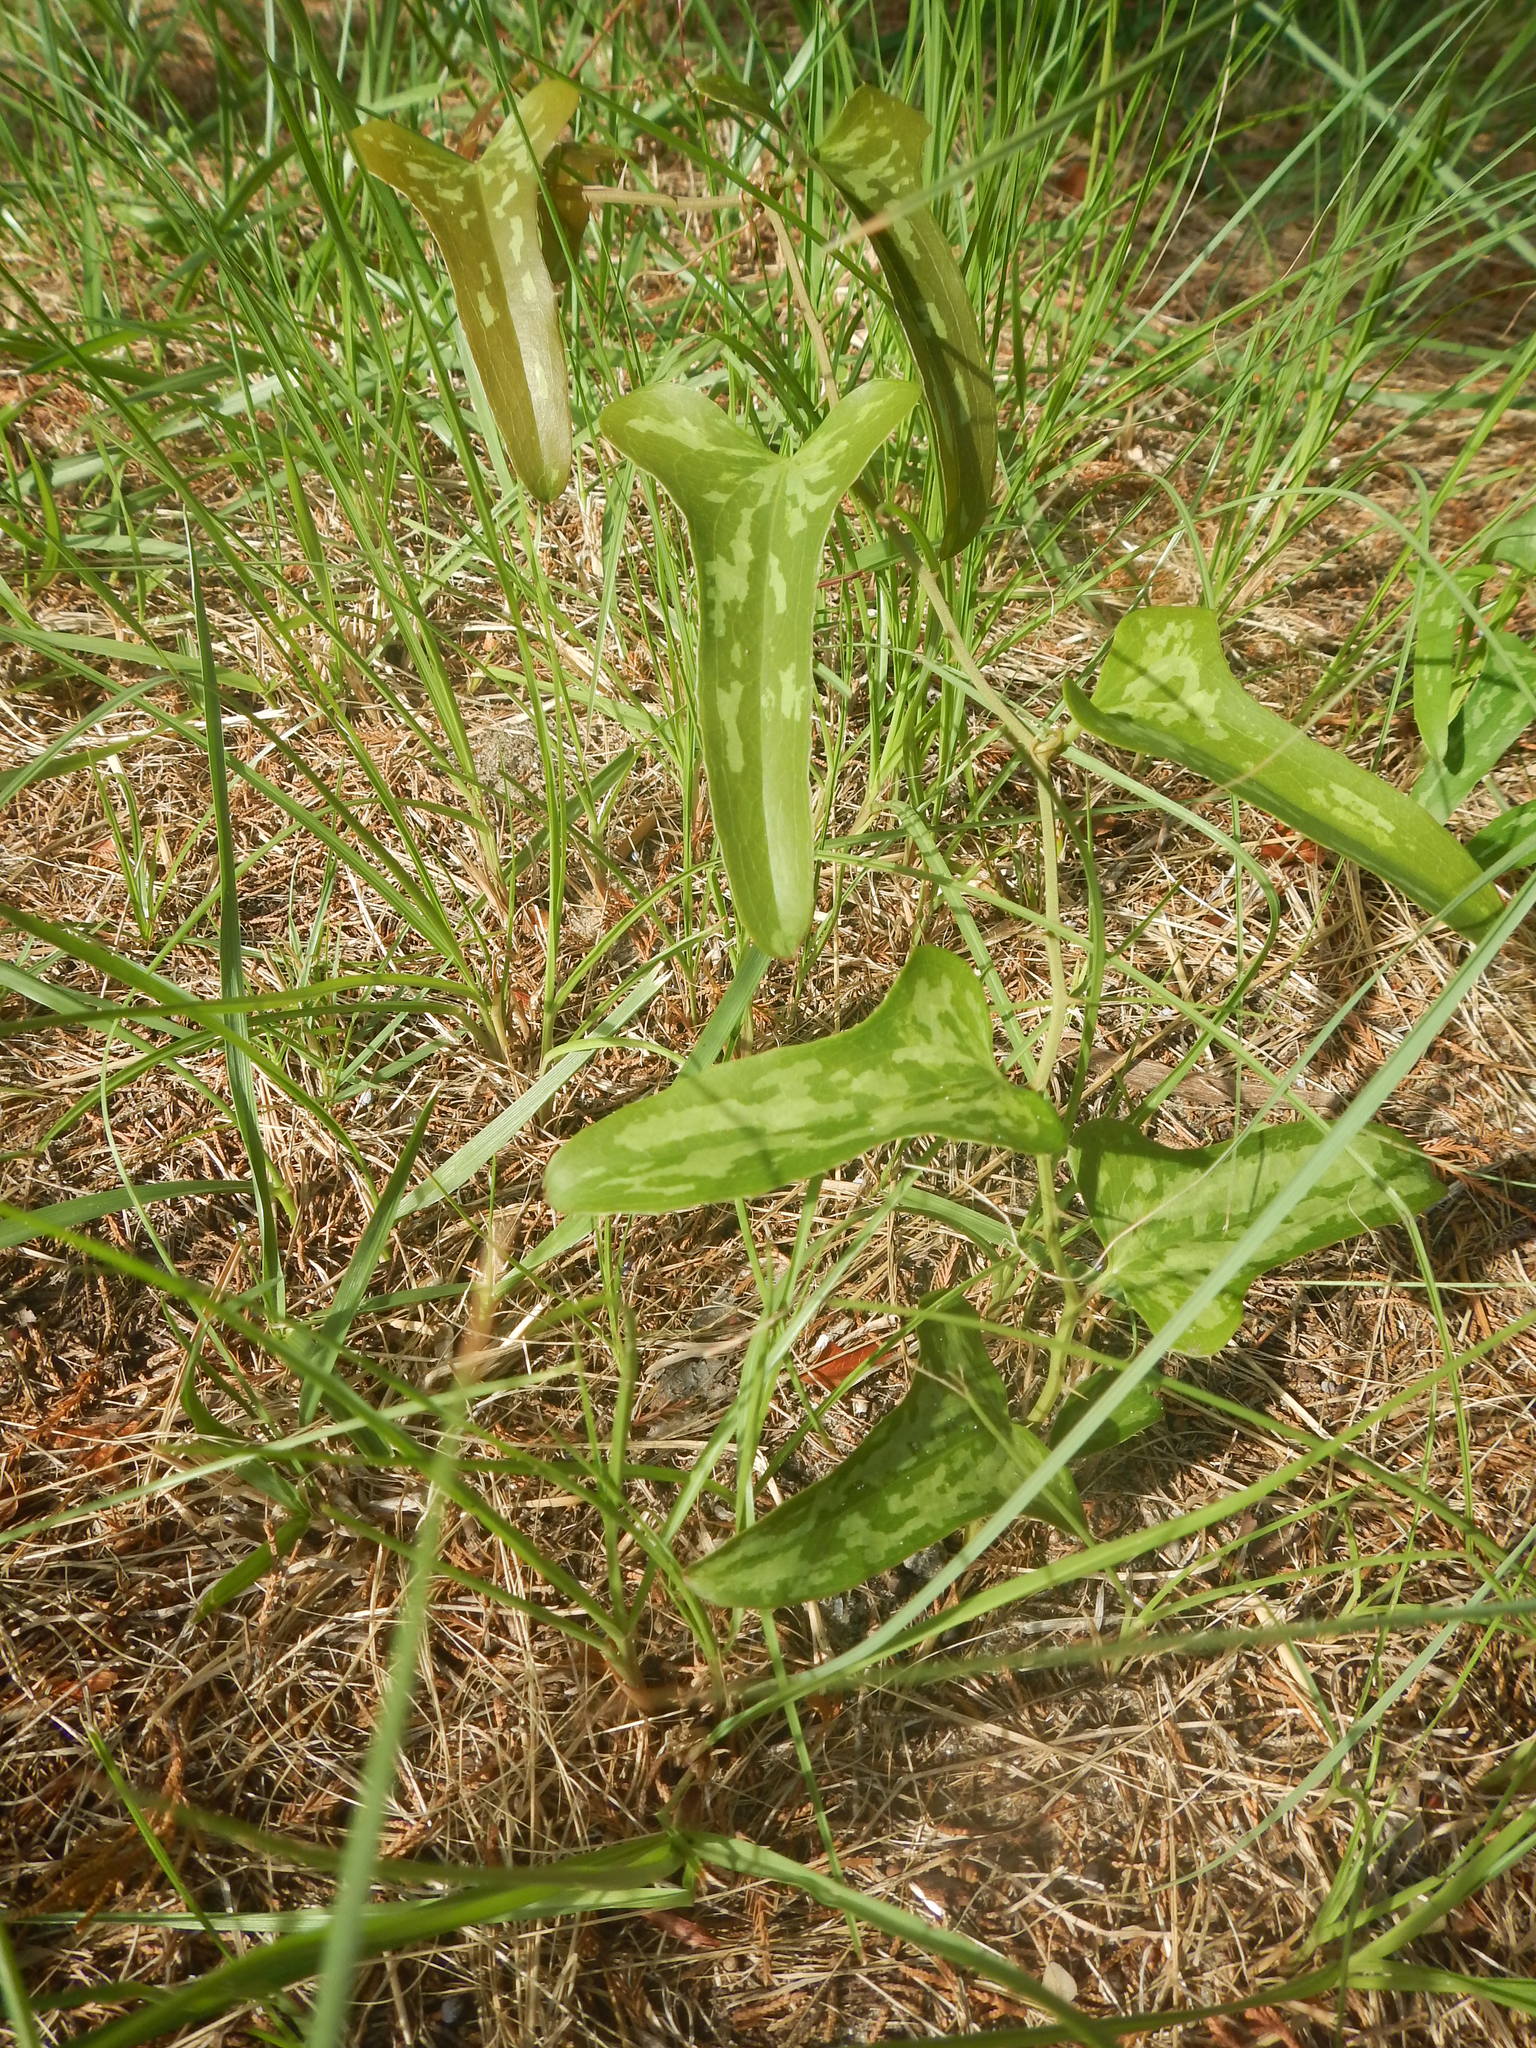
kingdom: Plantae
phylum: Tracheophyta
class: Liliopsida
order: Liliales
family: Smilacaceae
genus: Smilax
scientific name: Smilax bona-nox
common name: Catbrier
